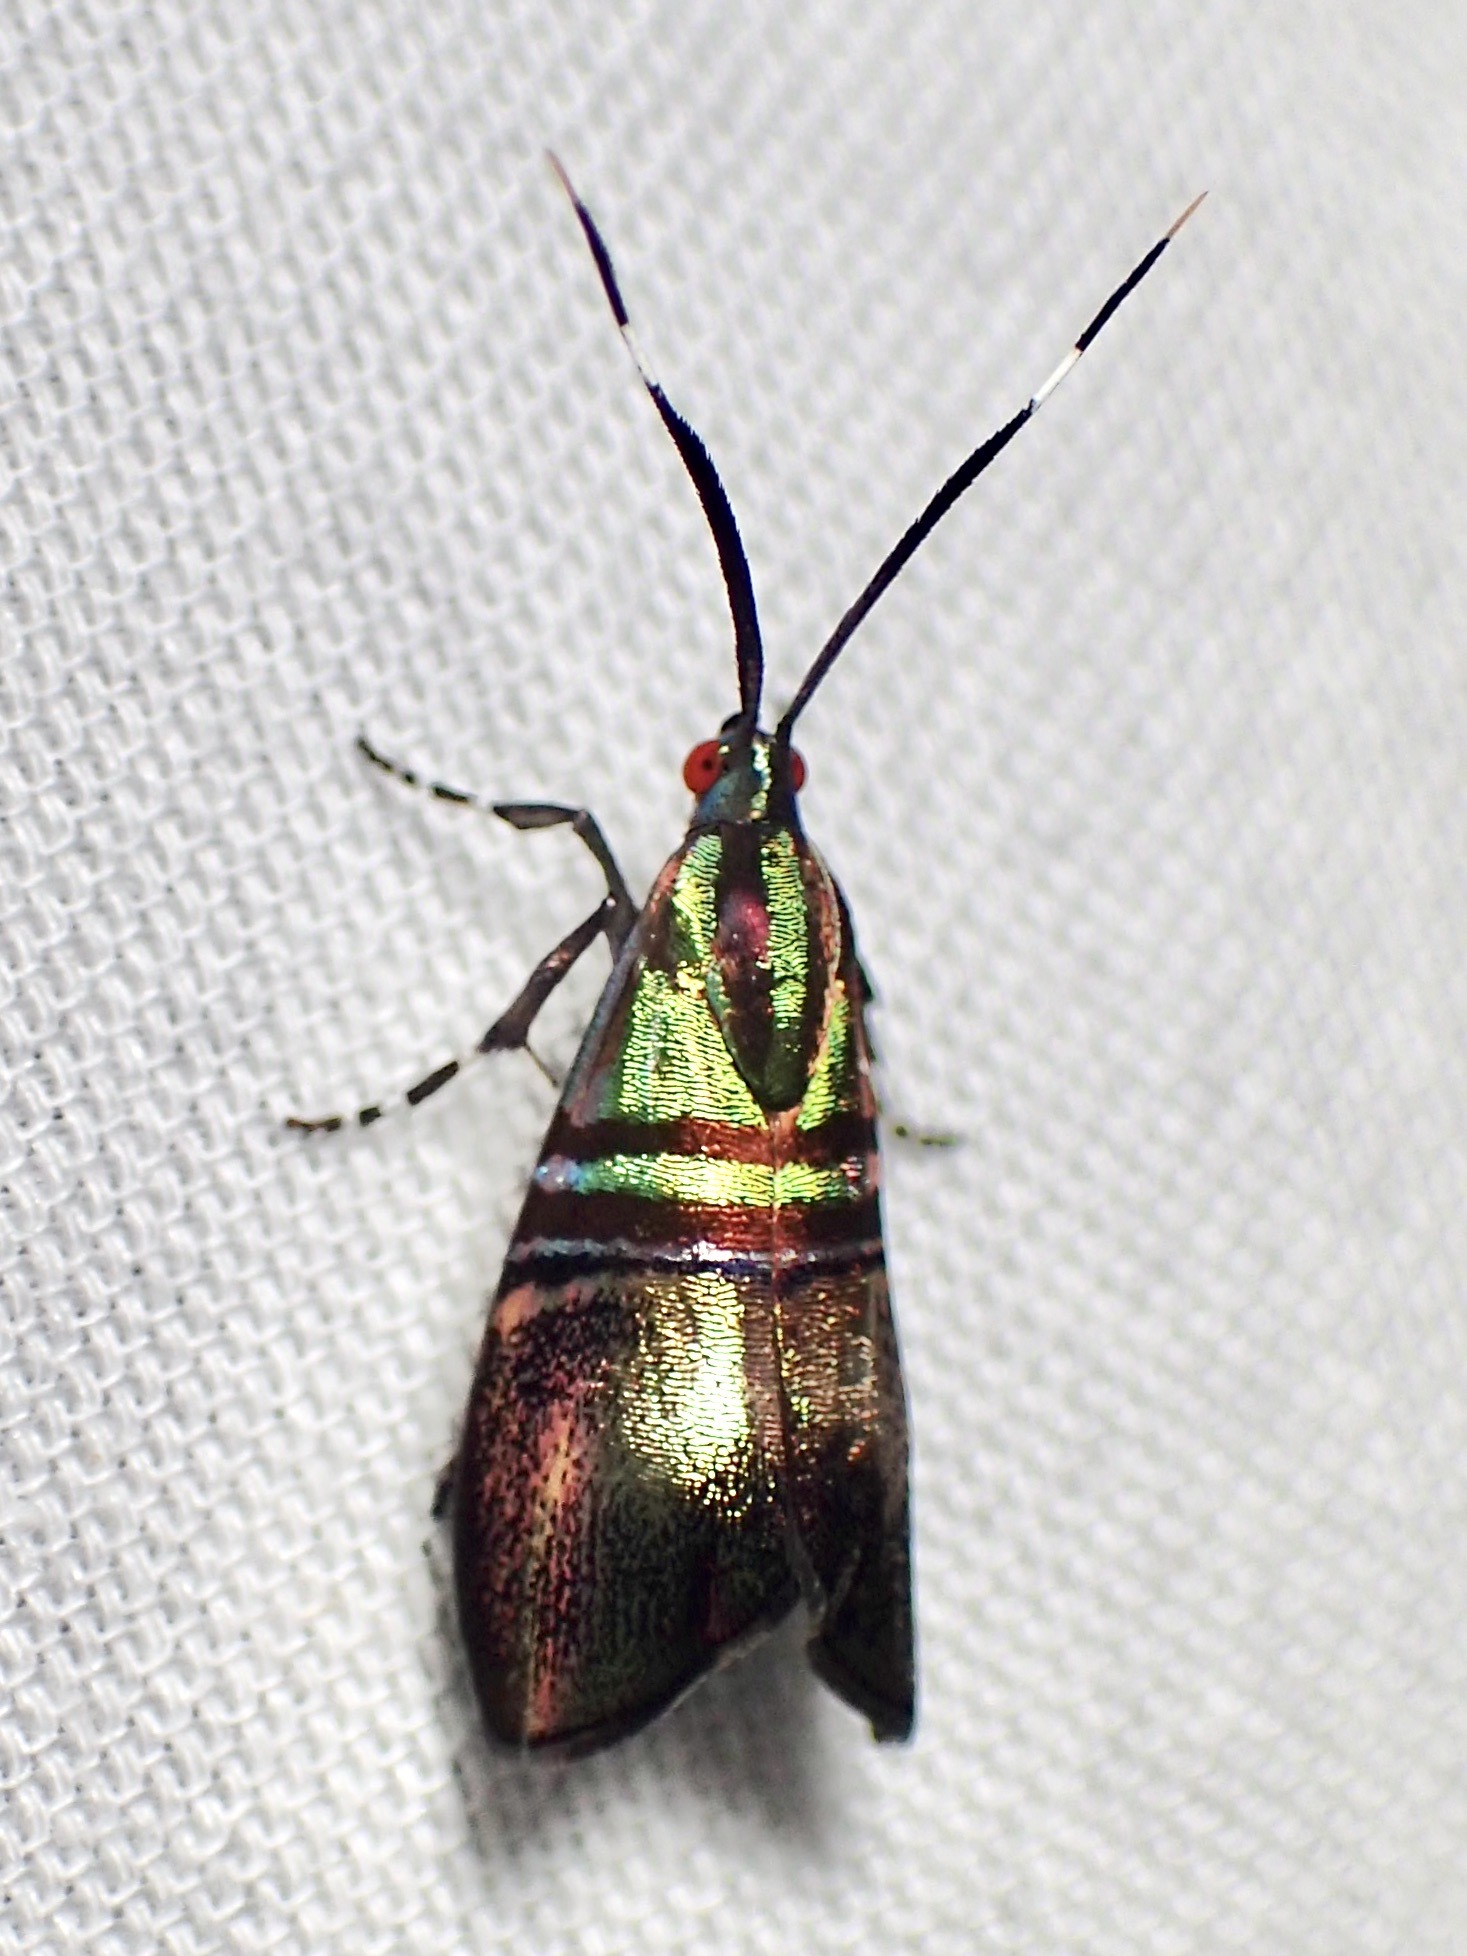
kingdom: Animalia
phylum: Arthropoda
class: Insecta
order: Lepidoptera
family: Choreutidae
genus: Saptha
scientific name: Saptha libanota
